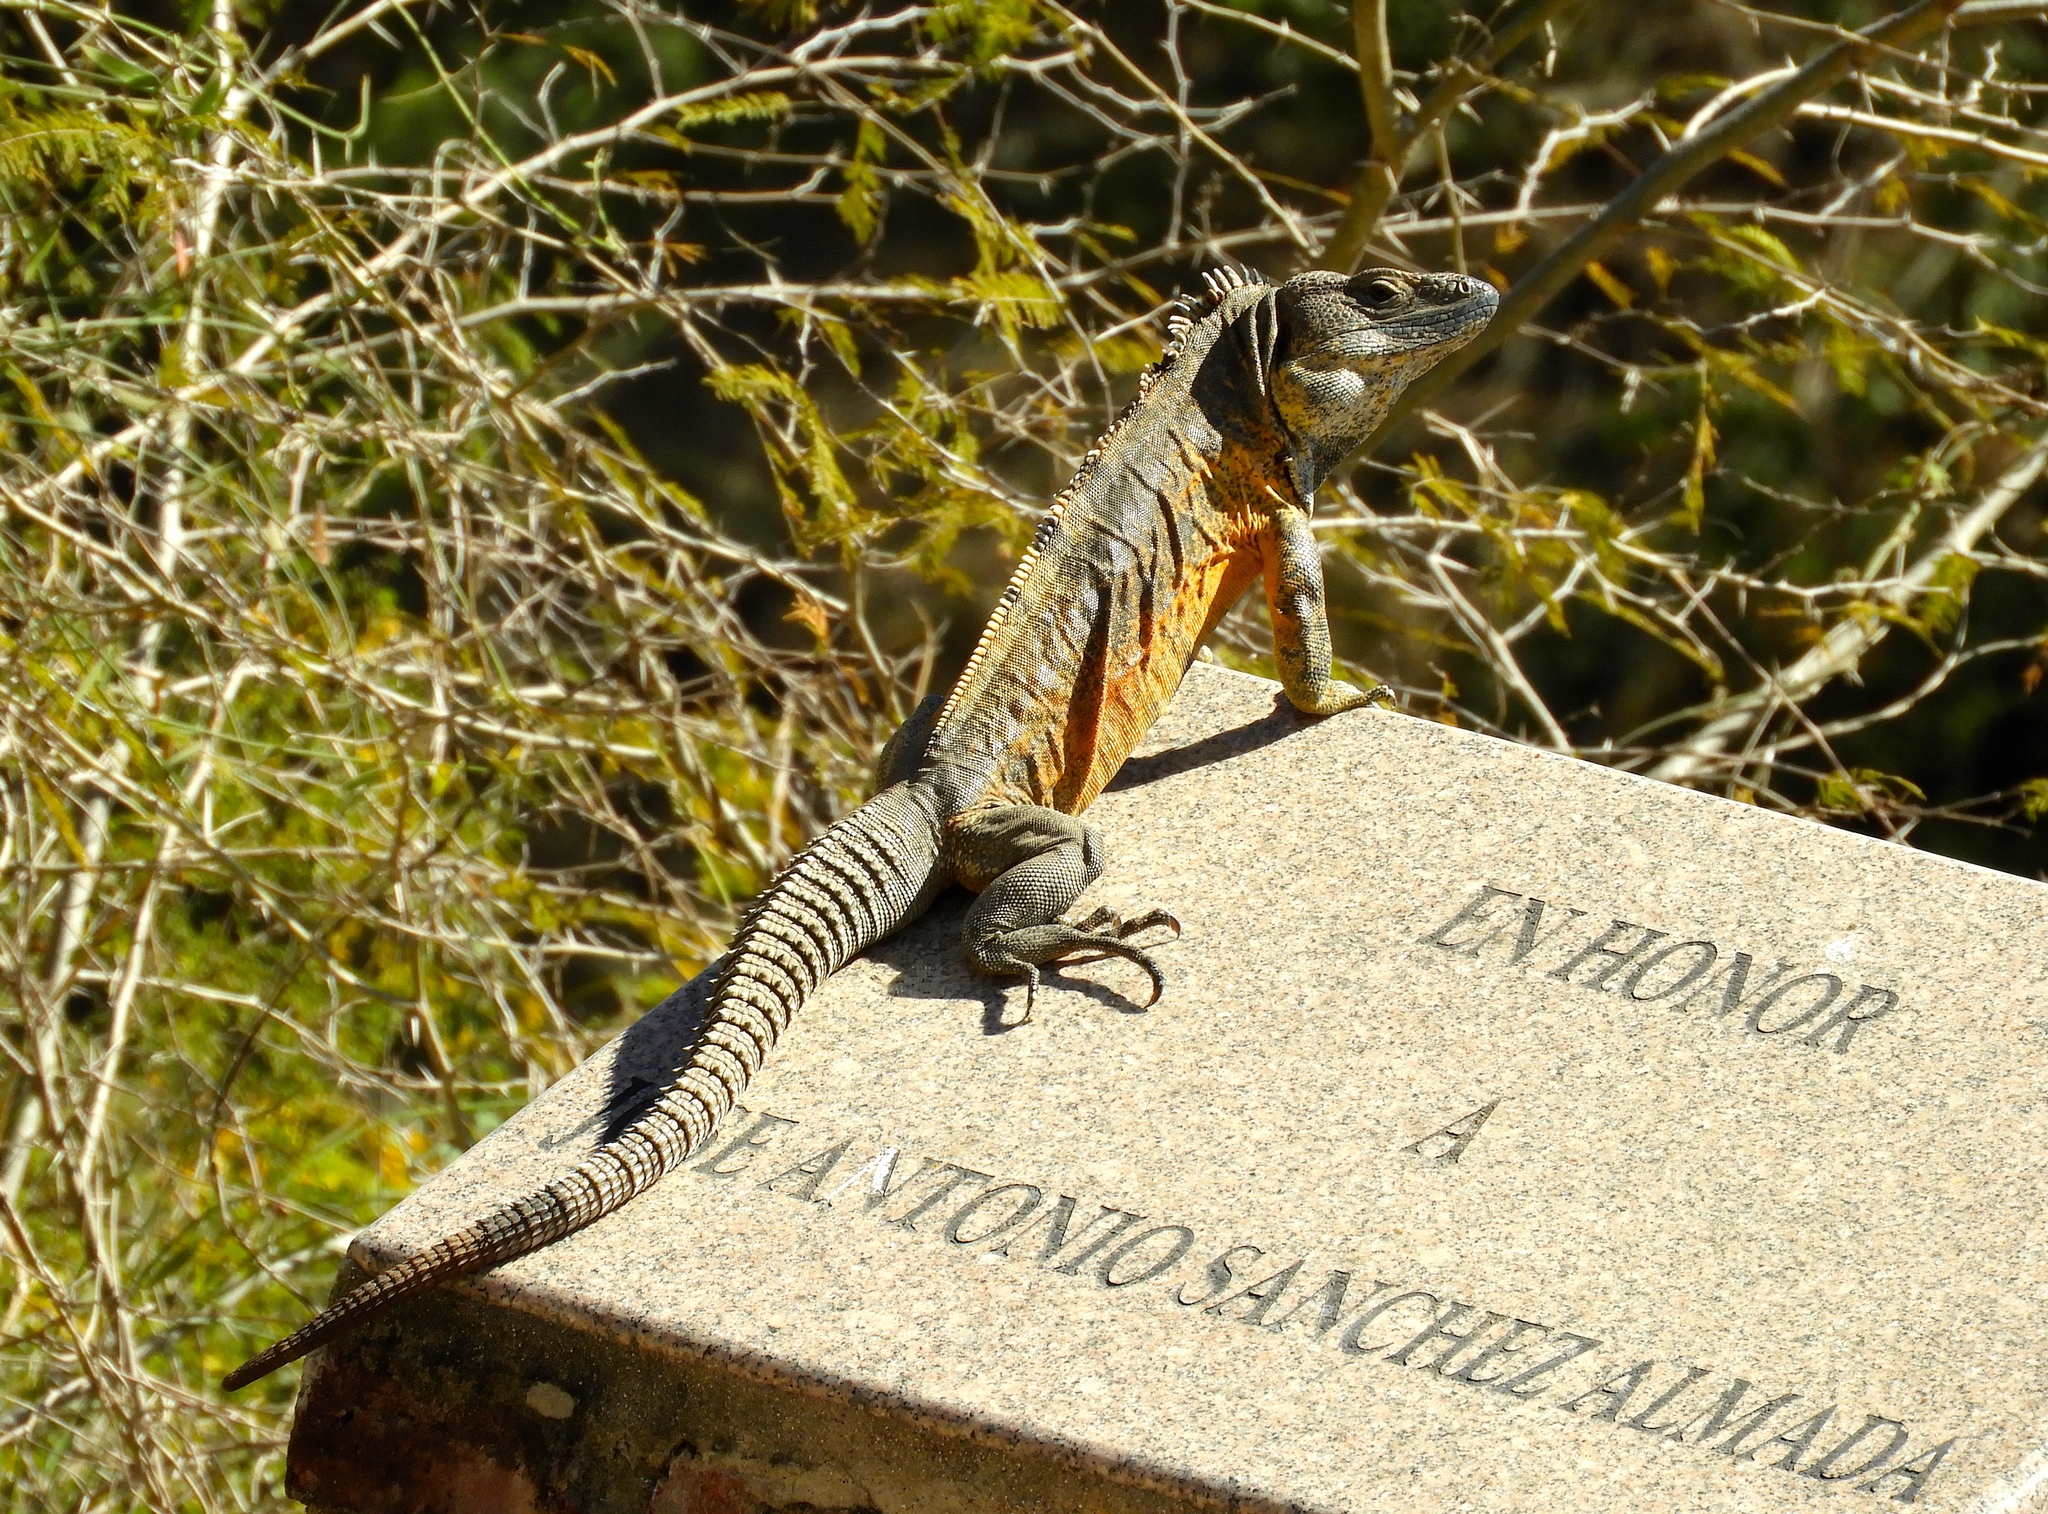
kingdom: Animalia
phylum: Chordata
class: Squamata
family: Iguanidae
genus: Ctenosaura
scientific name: Ctenosaura pectinata
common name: Guerreran spiny-tailed iguana
